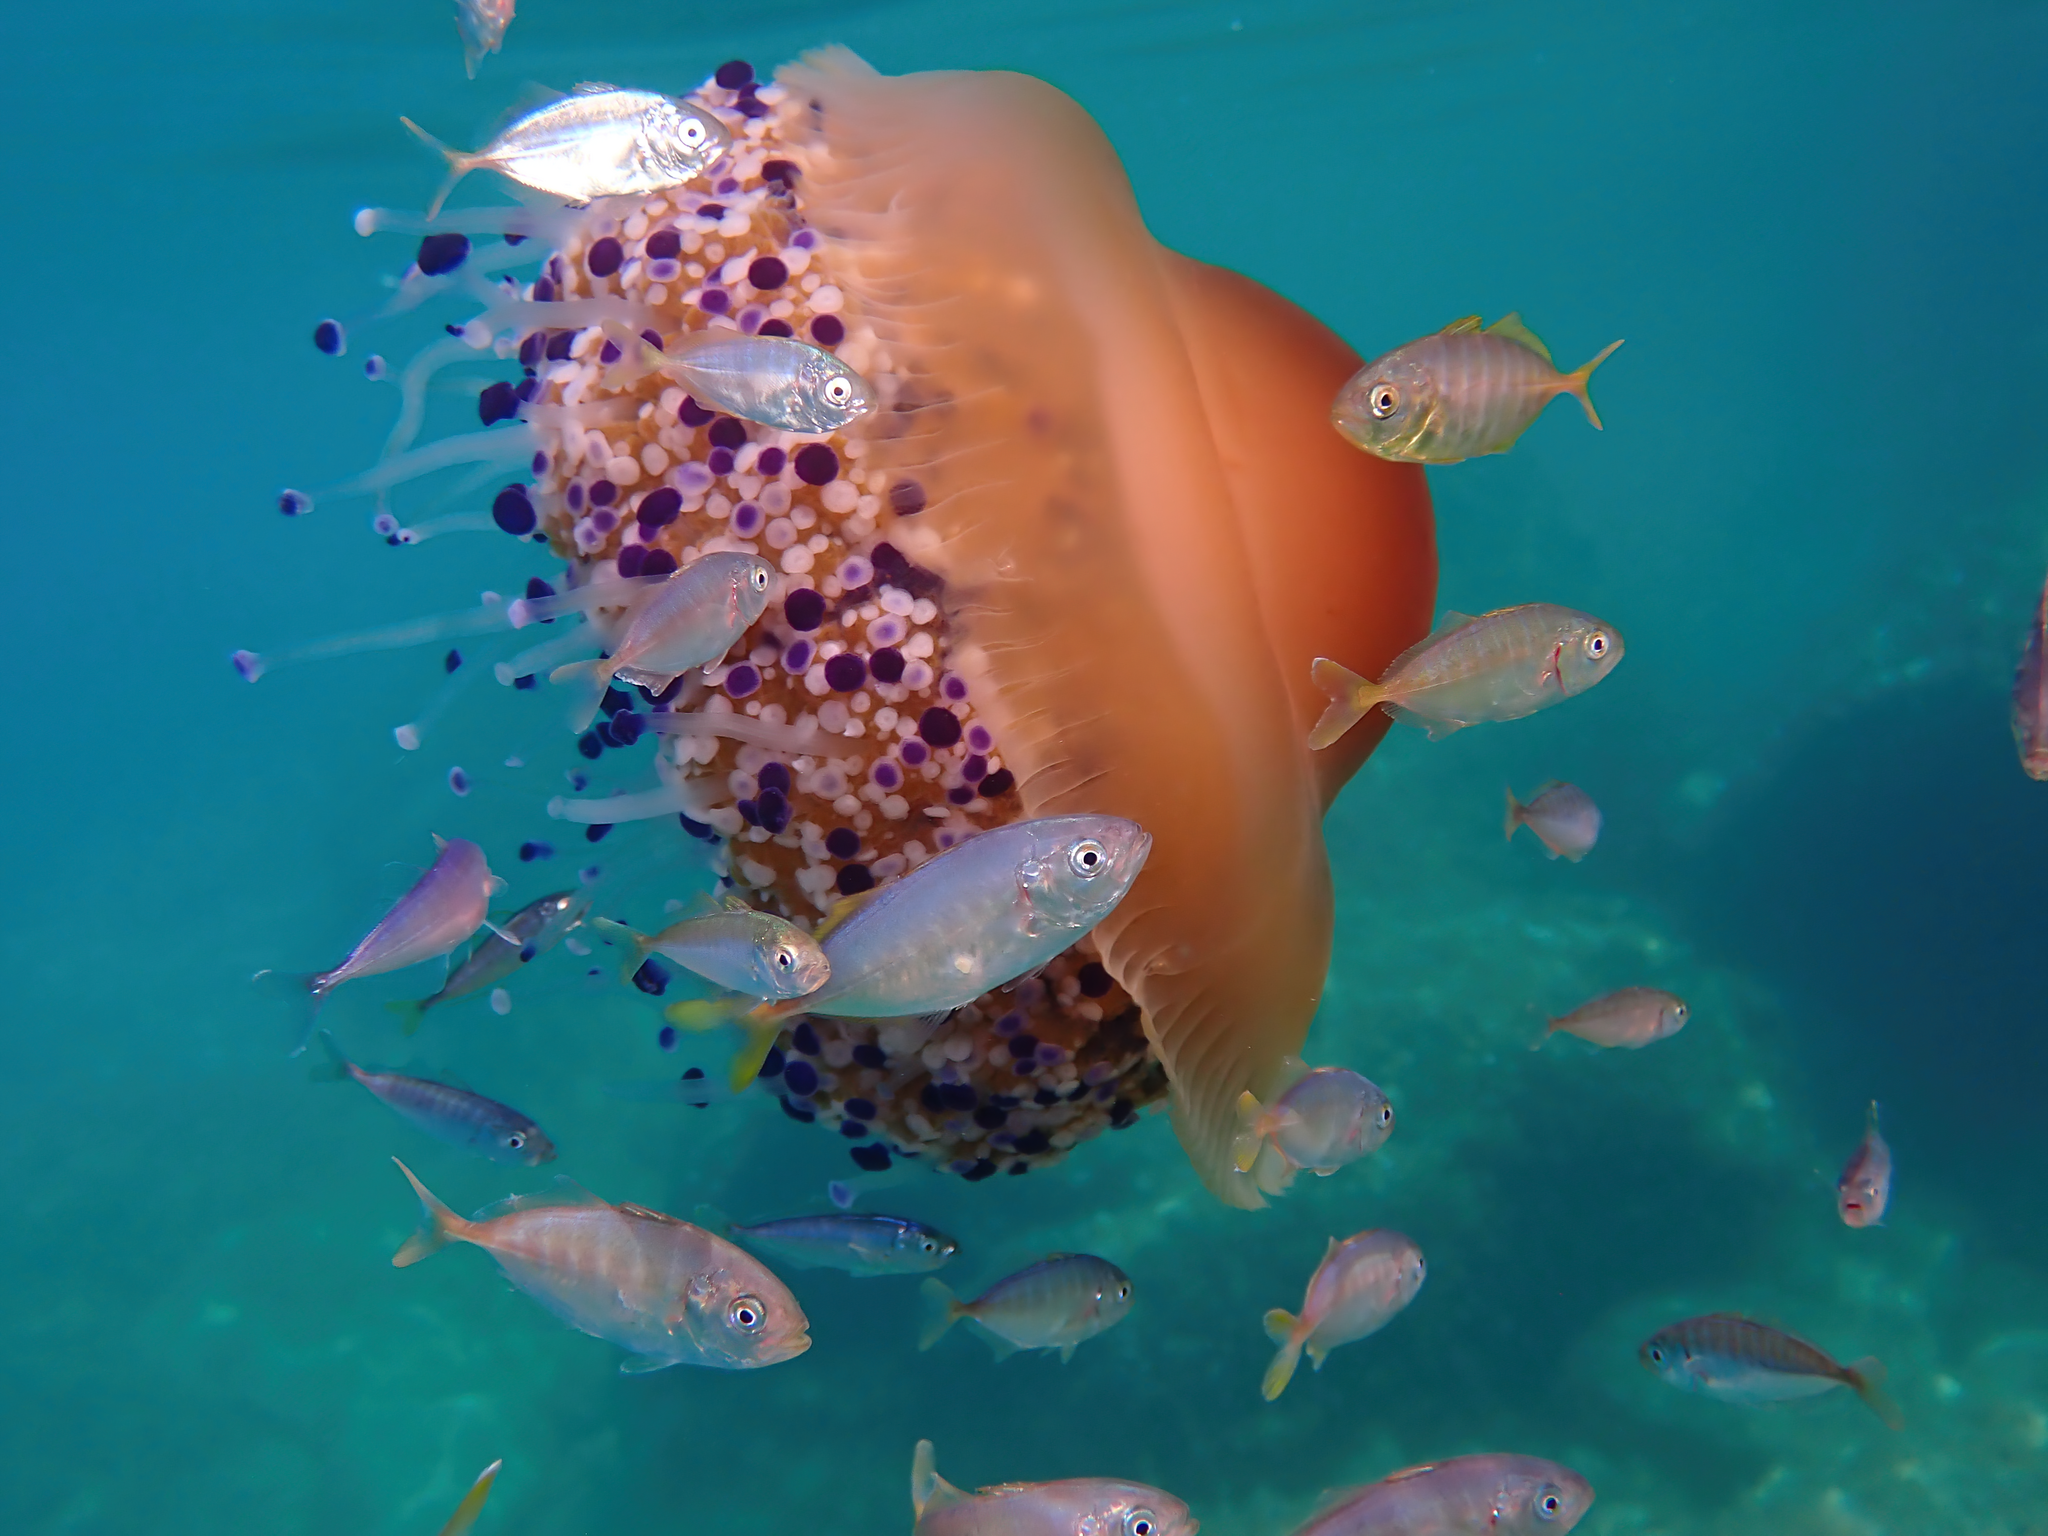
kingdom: Animalia
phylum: Cnidaria
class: Scyphozoa
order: Rhizostomeae
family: Cepheidae
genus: Cotylorhiza
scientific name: Cotylorhiza tuberculata
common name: Mediterranean jelly
